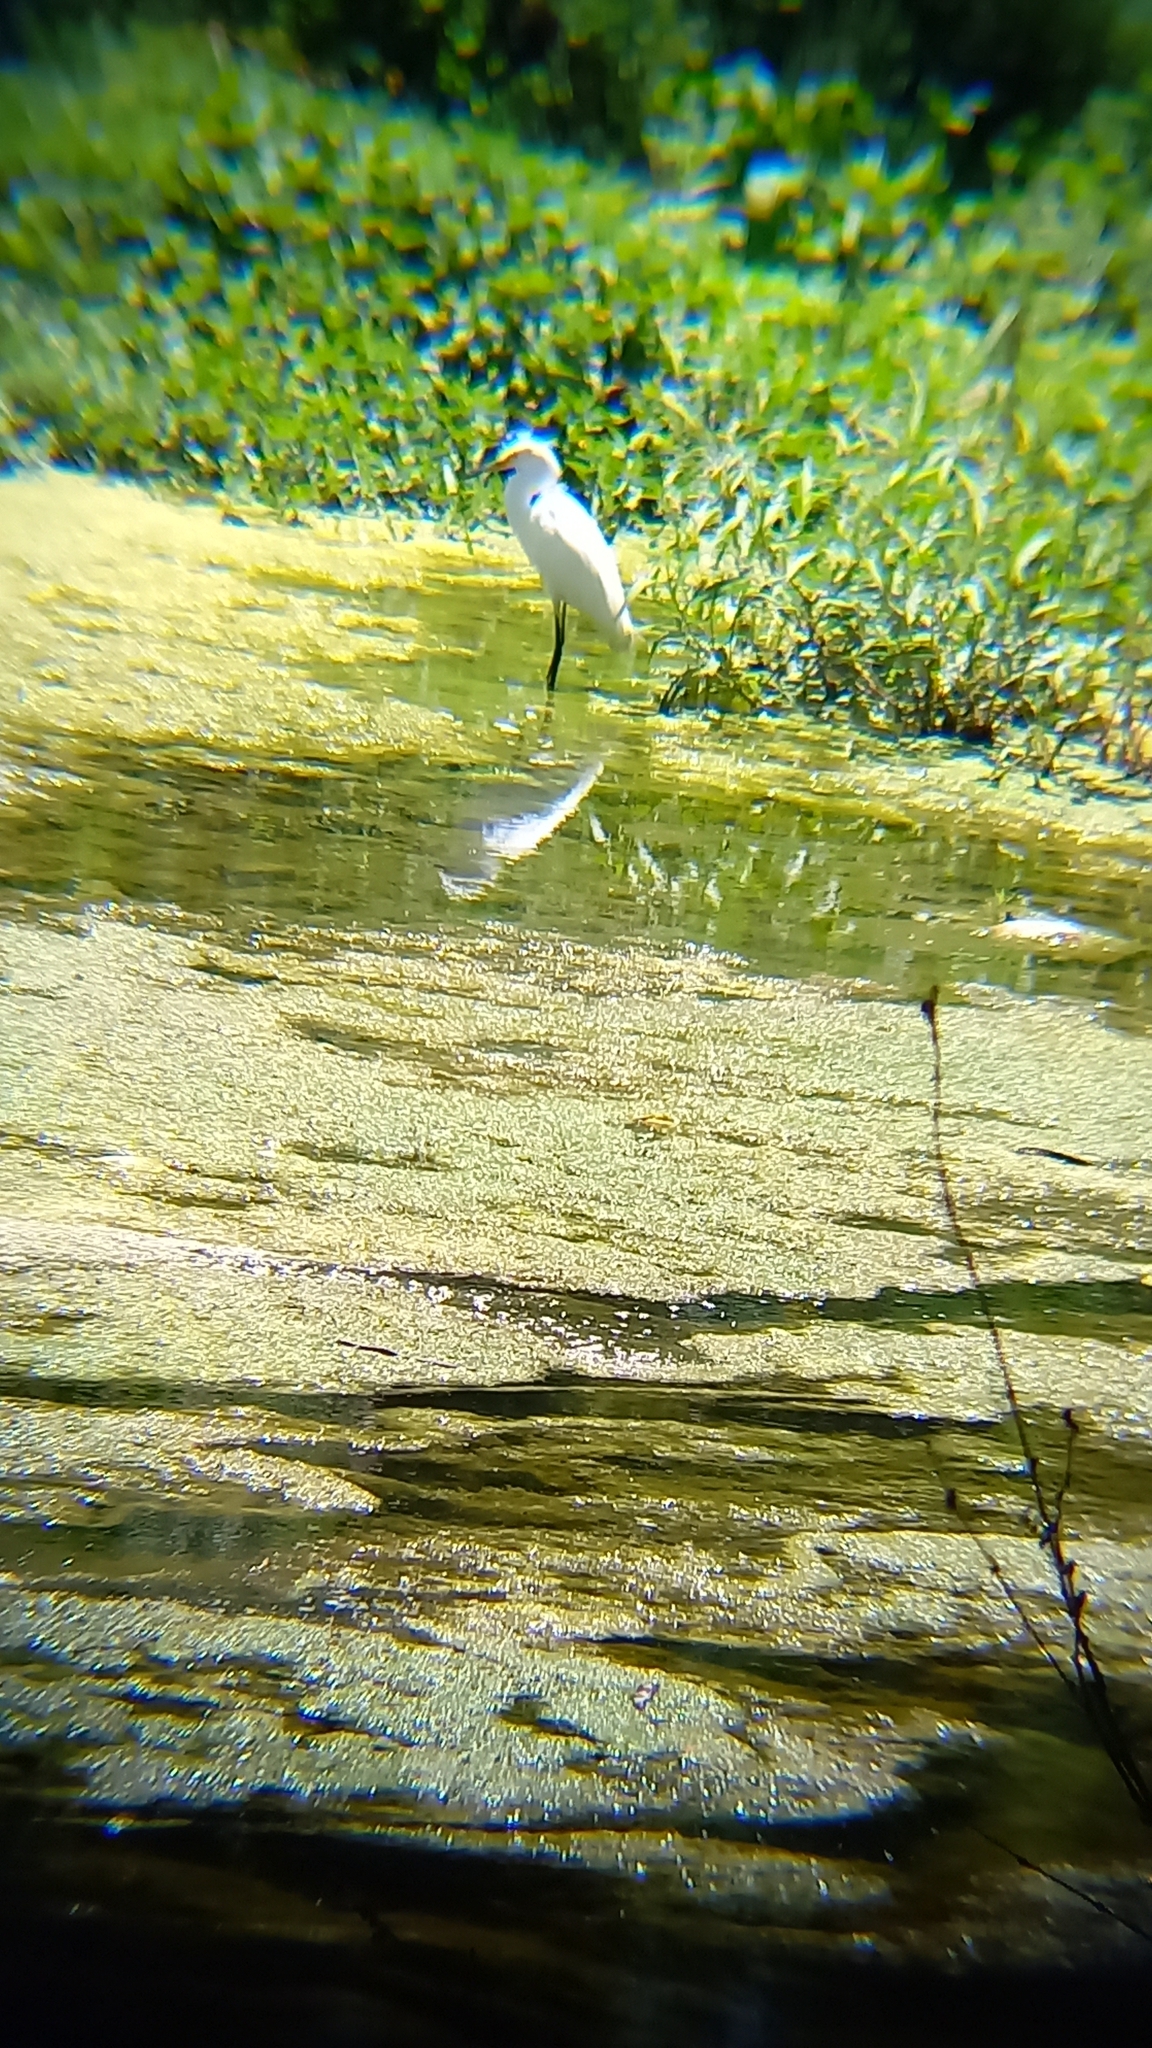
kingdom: Animalia
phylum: Chordata
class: Aves
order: Pelecaniformes
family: Ardeidae
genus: Egretta
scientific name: Egretta thula
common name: Snowy egret
